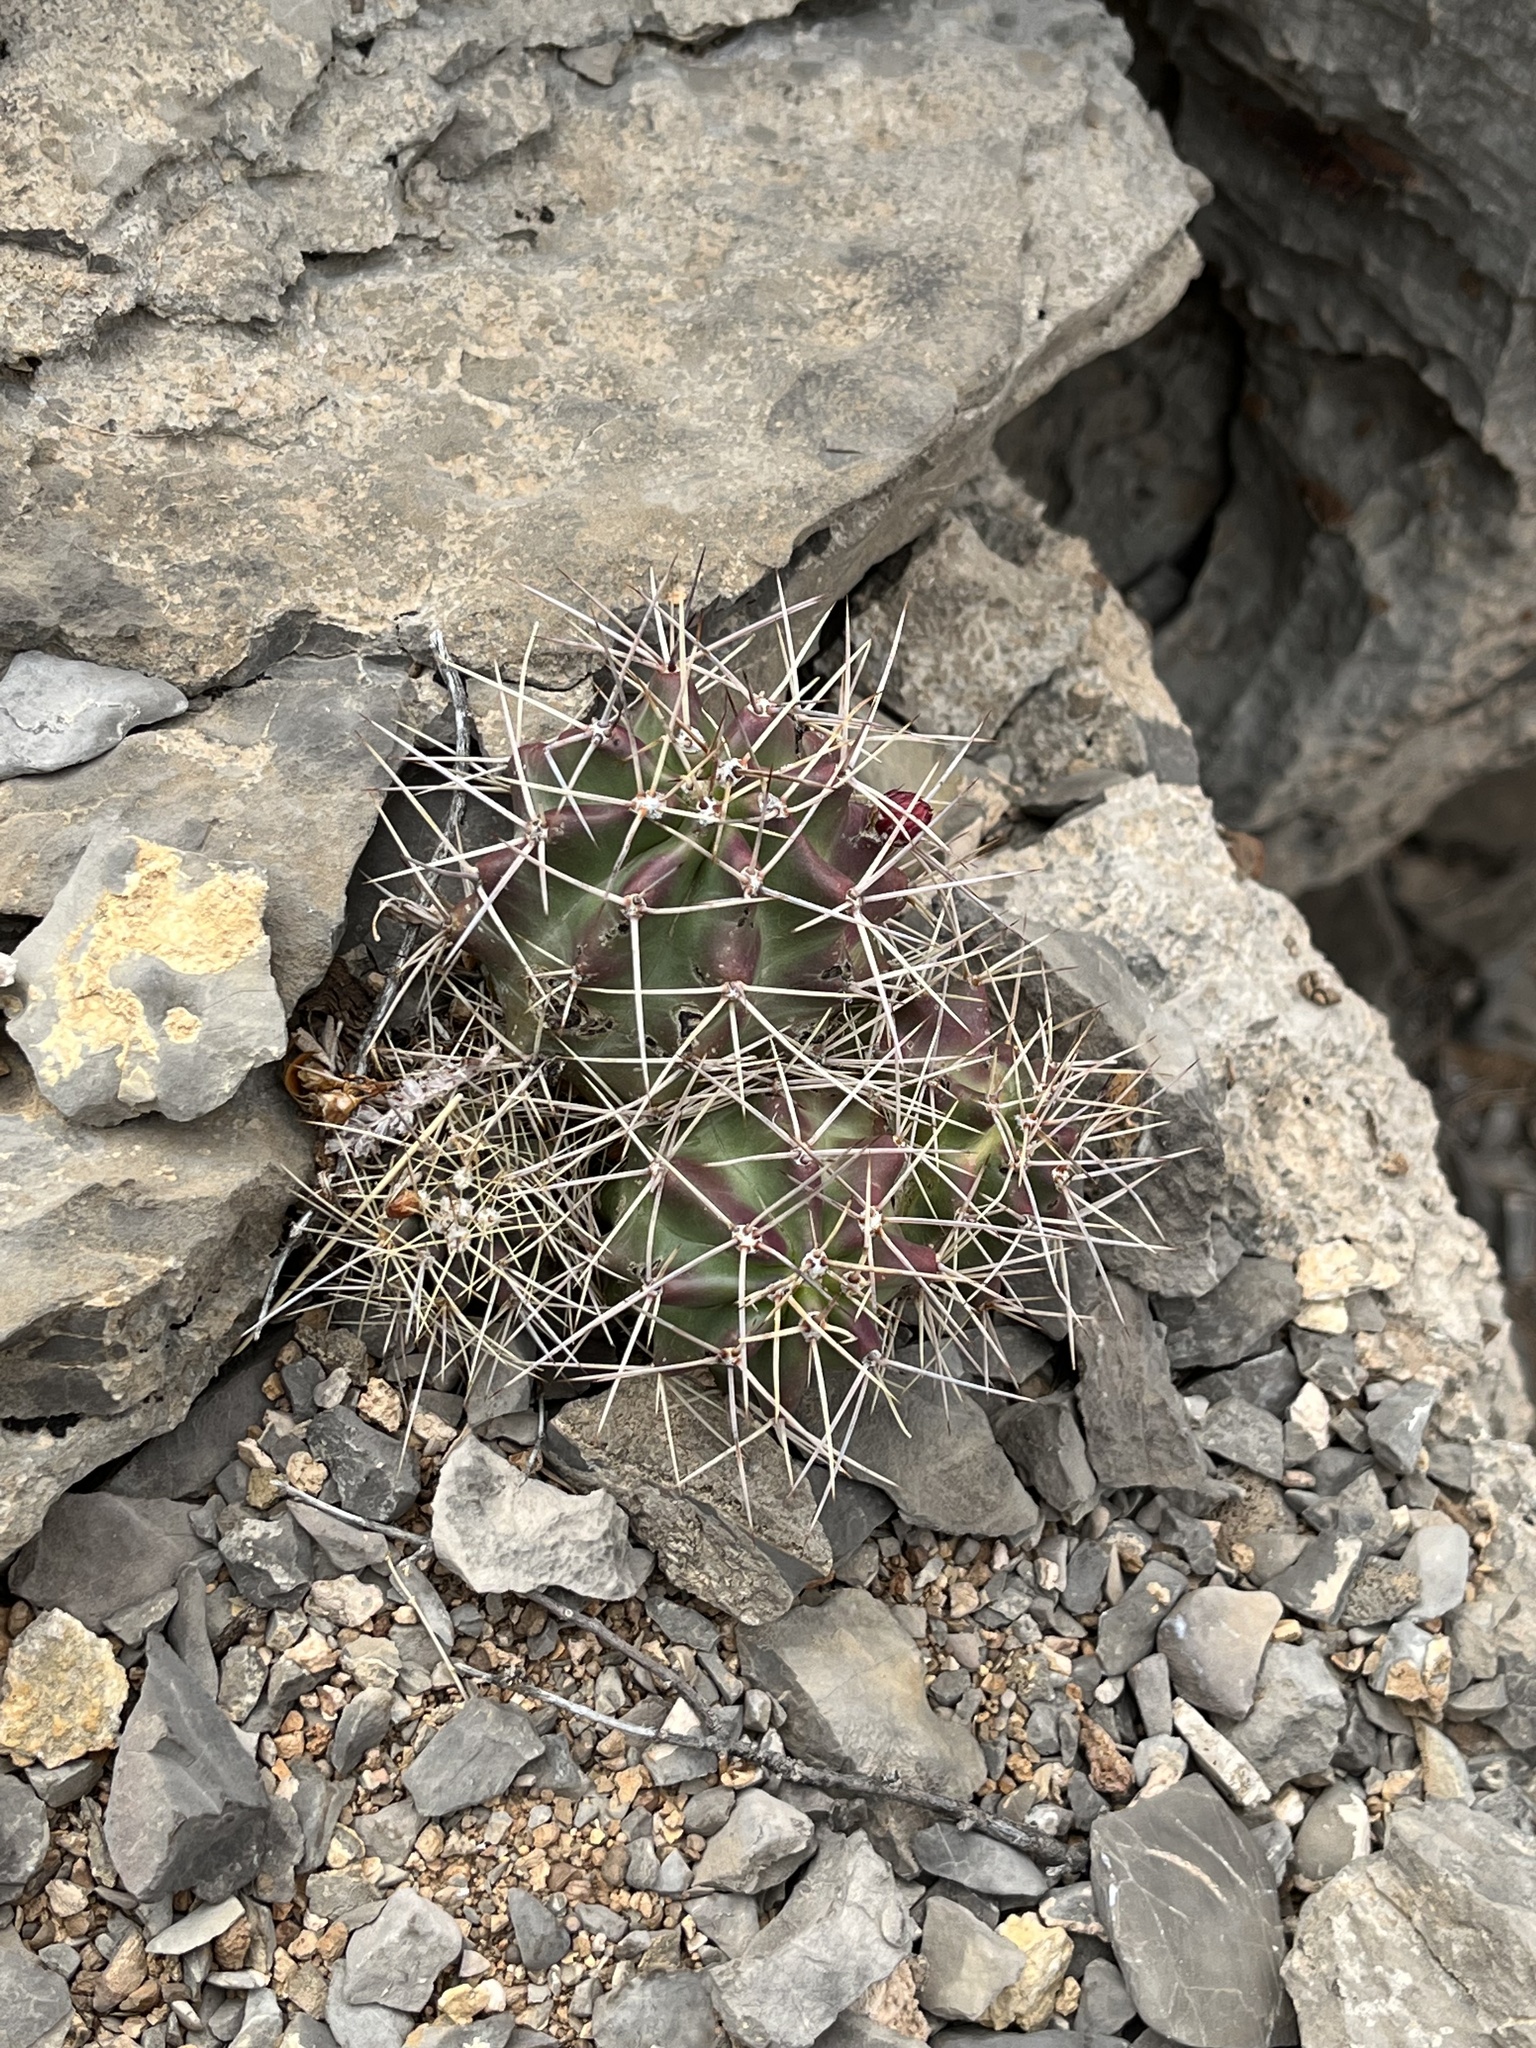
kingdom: Plantae
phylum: Tracheophyta
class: Magnoliopsida
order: Caryophyllales
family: Cactaceae
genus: Echinocereus
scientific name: Echinocereus coccineus
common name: Scarlet hedgehog cactus
